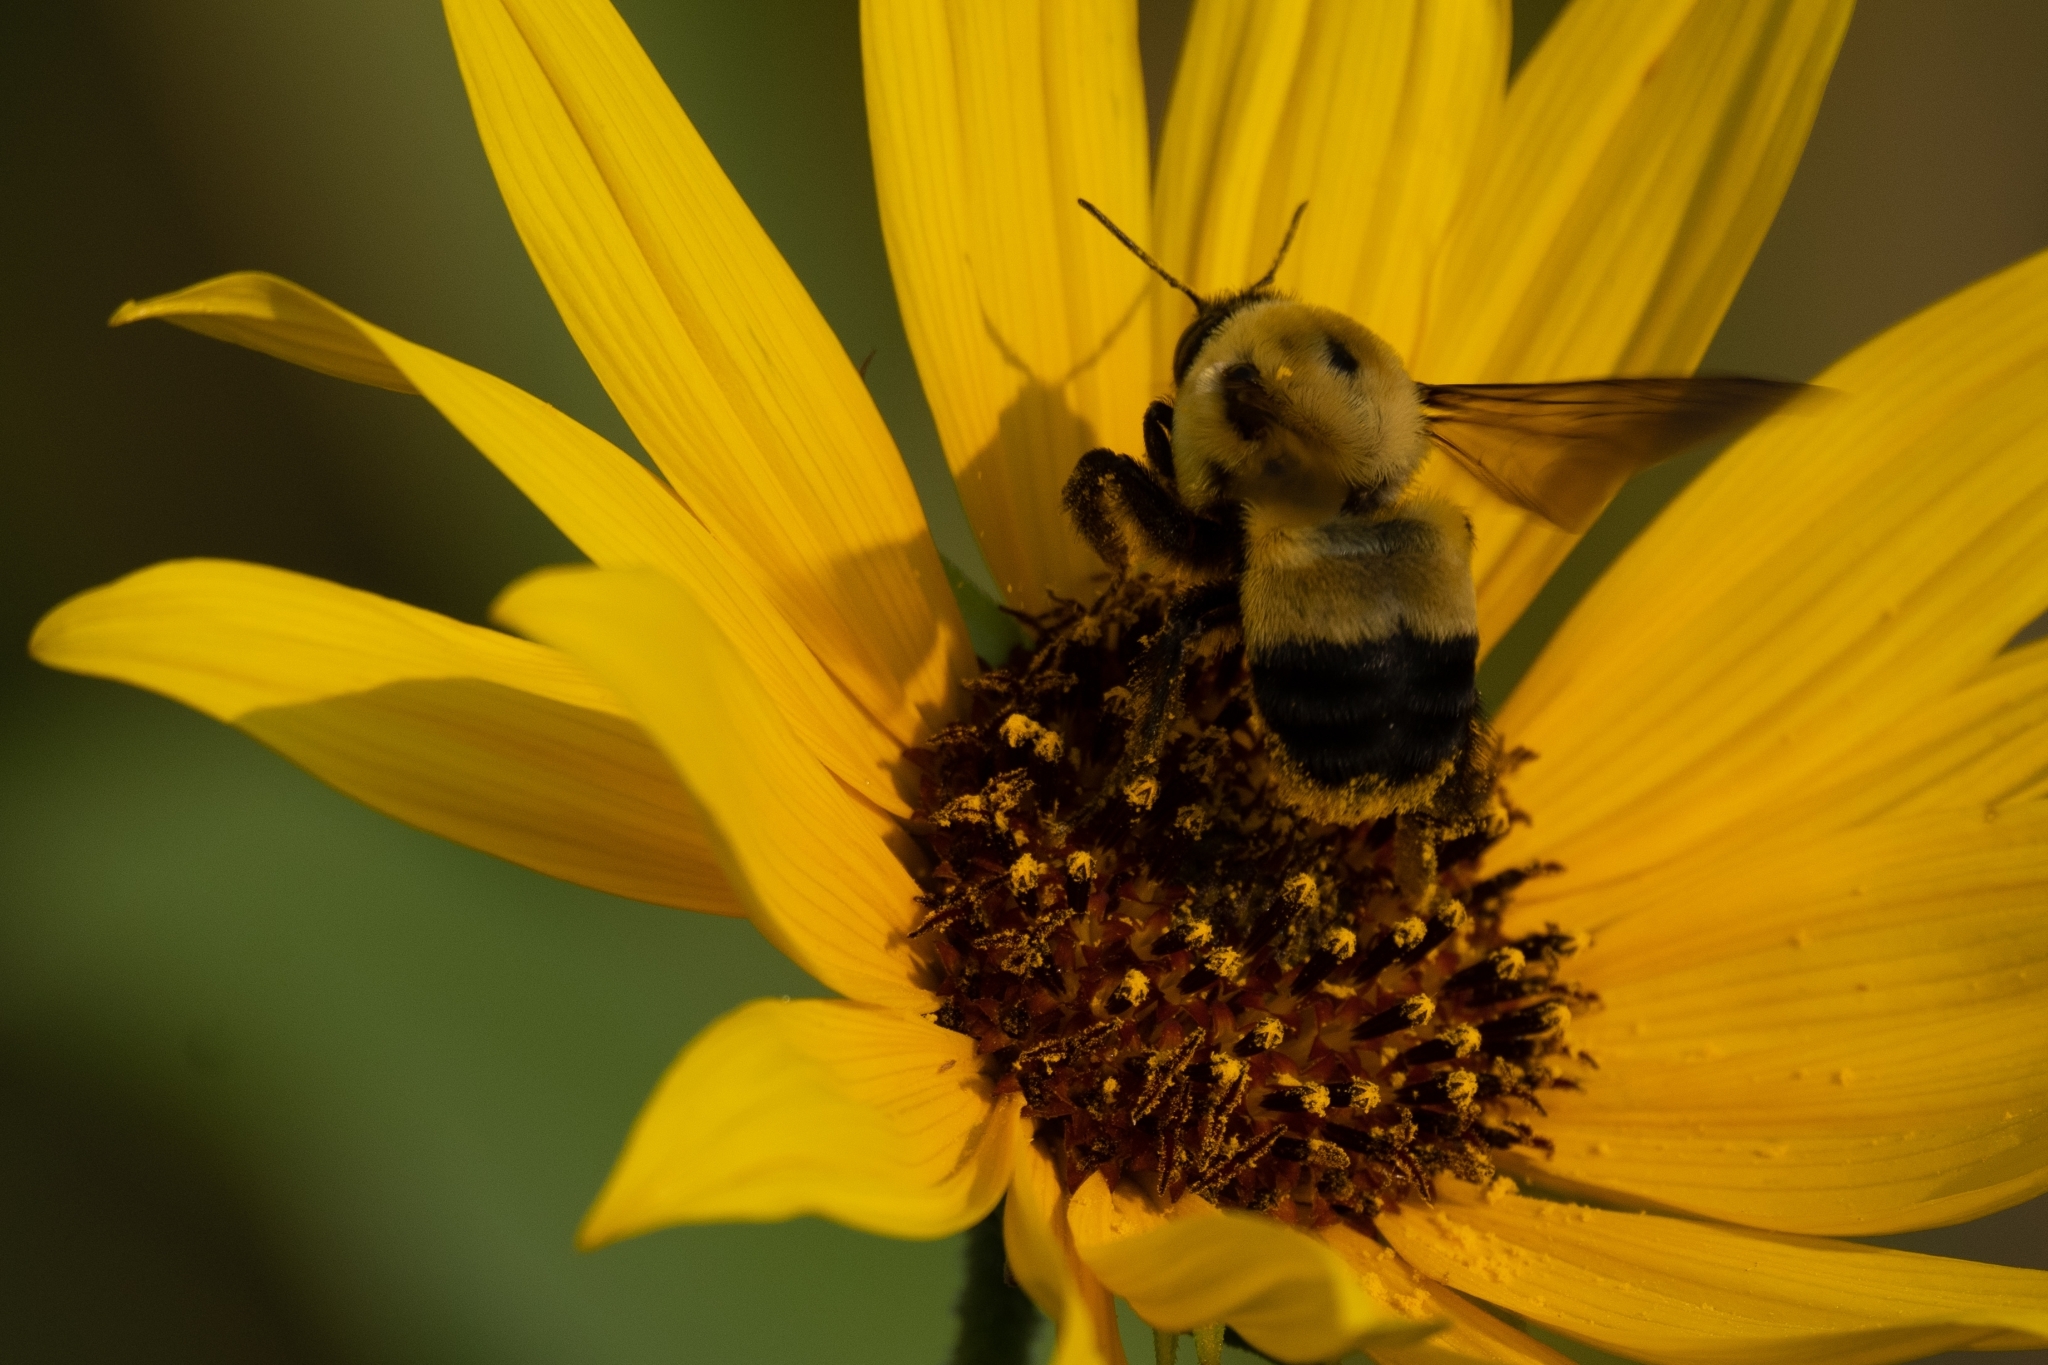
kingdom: Animalia
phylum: Arthropoda
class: Insecta
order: Hymenoptera
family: Apidae
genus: Bombus
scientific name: Bombus griseocollis
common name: Brown-belted bumble bee
